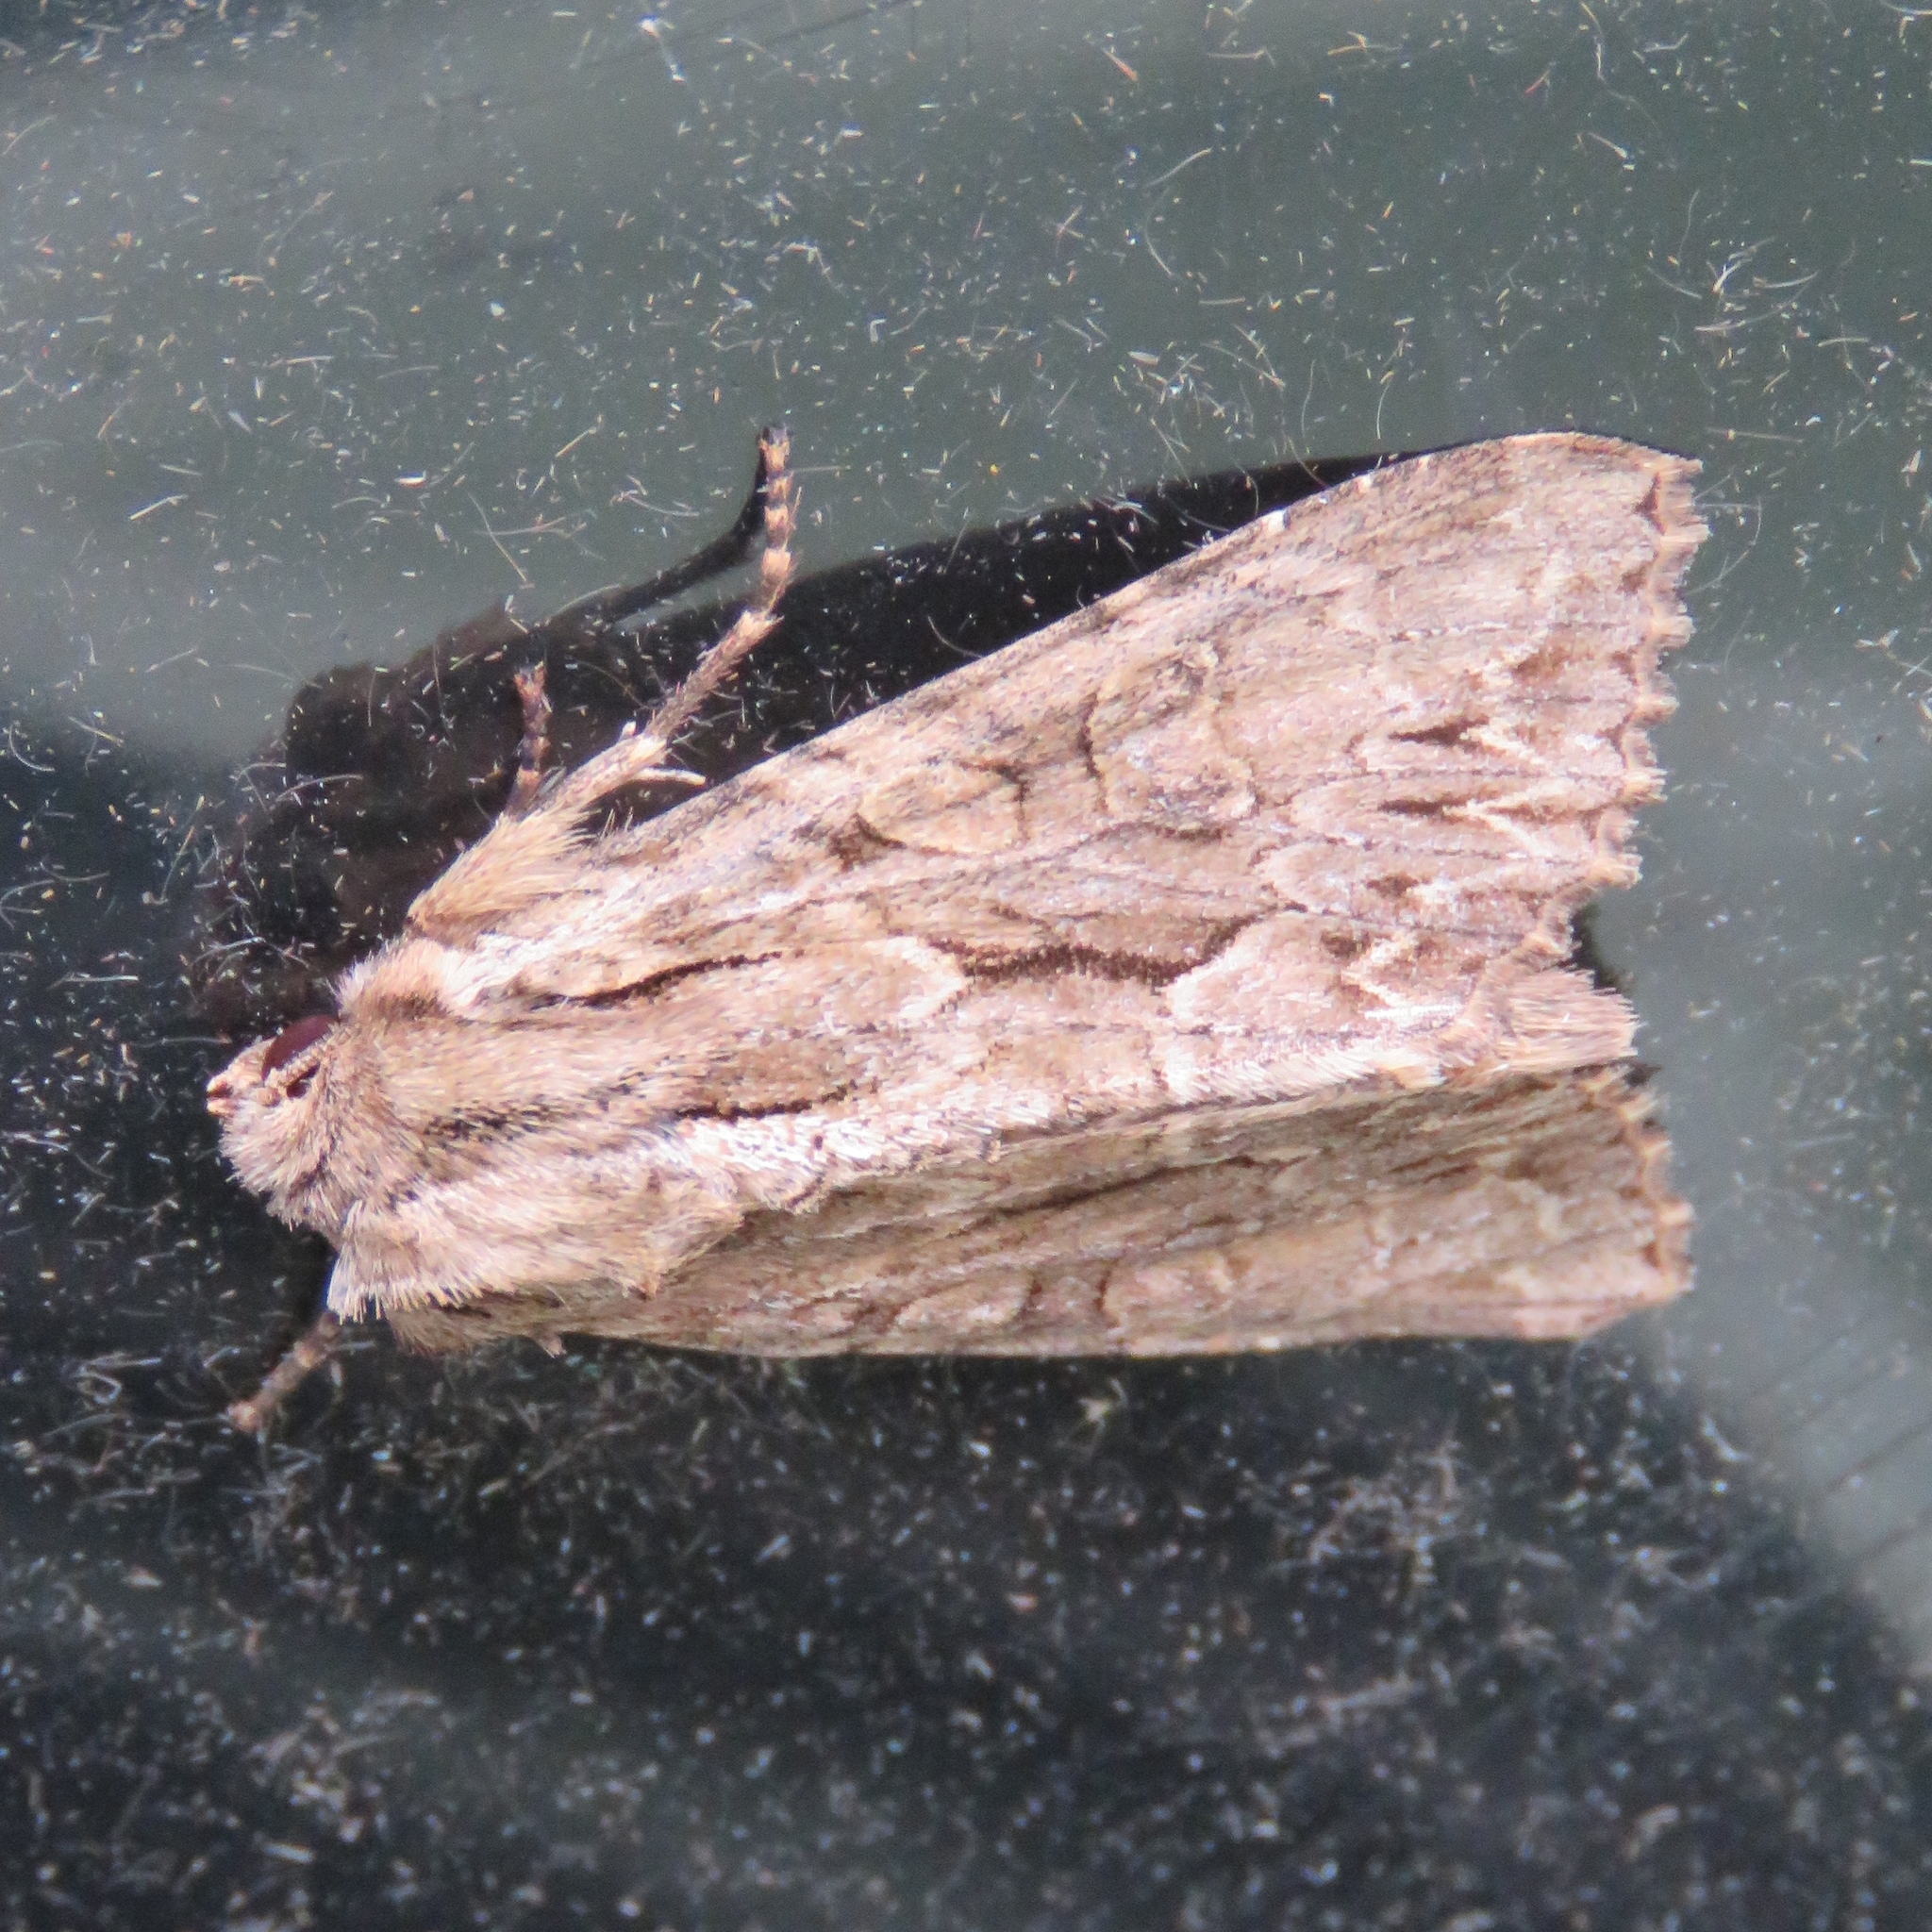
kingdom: Animalia
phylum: Arthropoda
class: Insecta
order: Lepidoptera
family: Noctuidae
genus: Apamea
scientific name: Apamea monoglypha
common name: Dark arches
